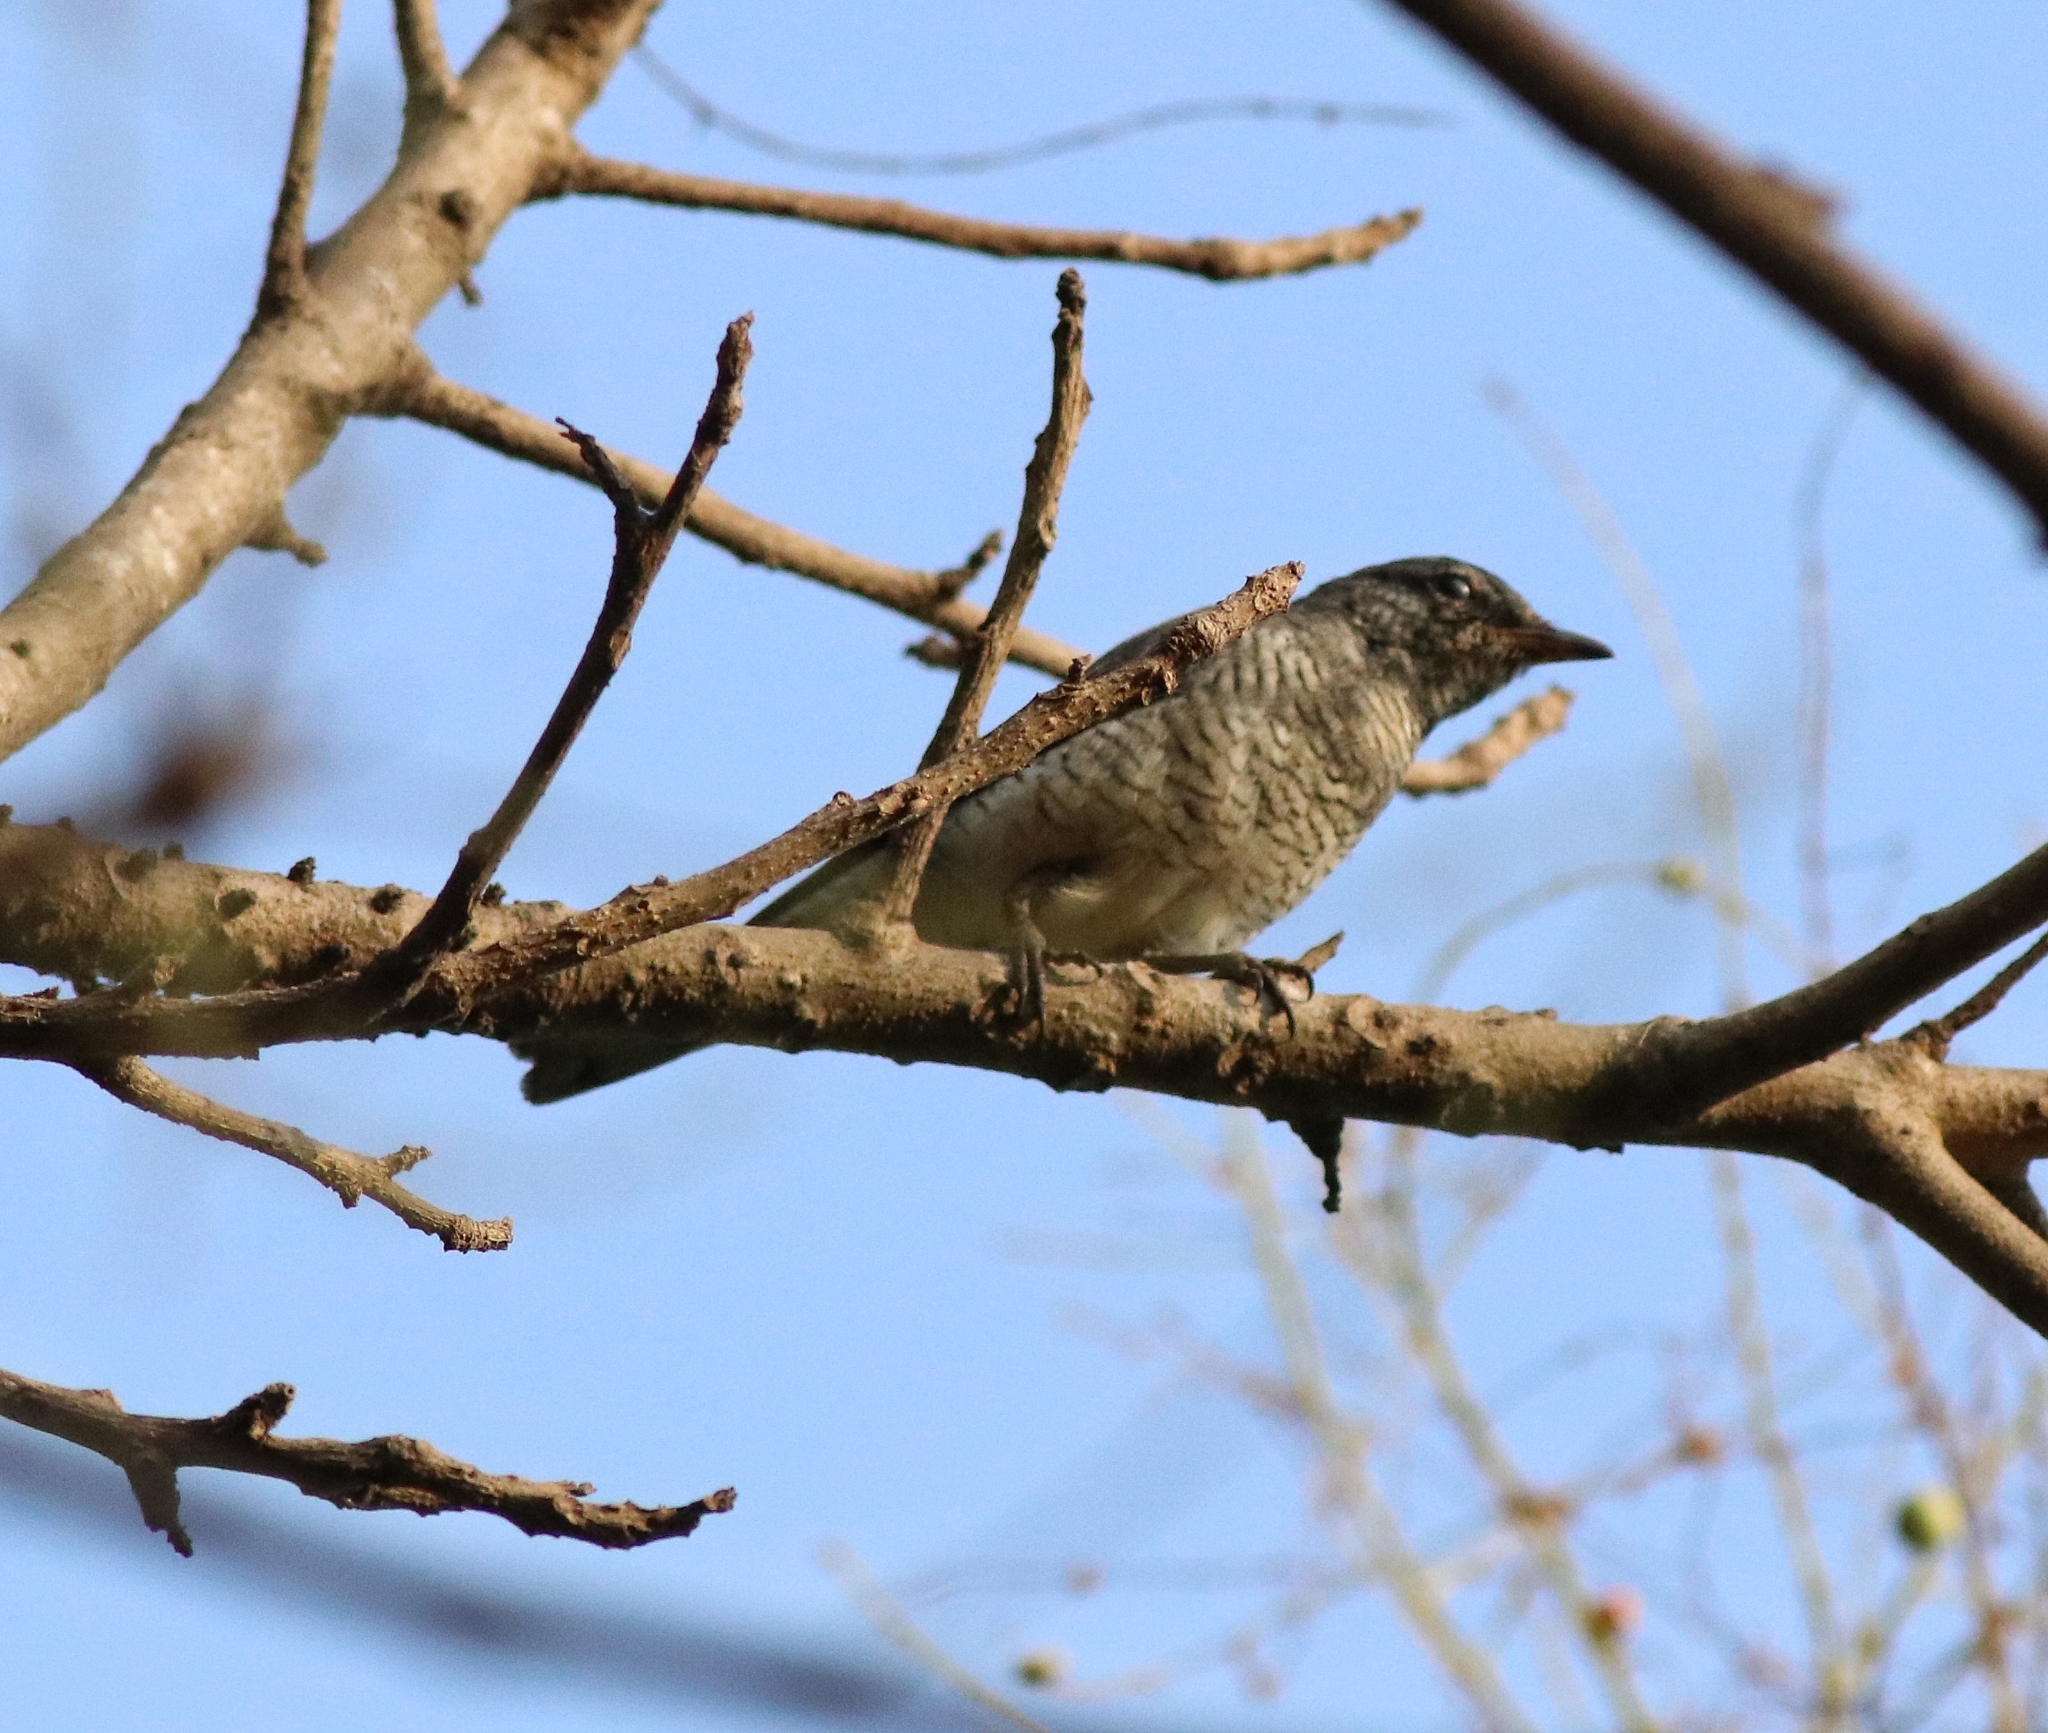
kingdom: Animalia
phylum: Chordata
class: Aves
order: Passeriformes
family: Campephagidae
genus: Coracina
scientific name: Coracina melanoptera
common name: Black-headed cuckooshrike
